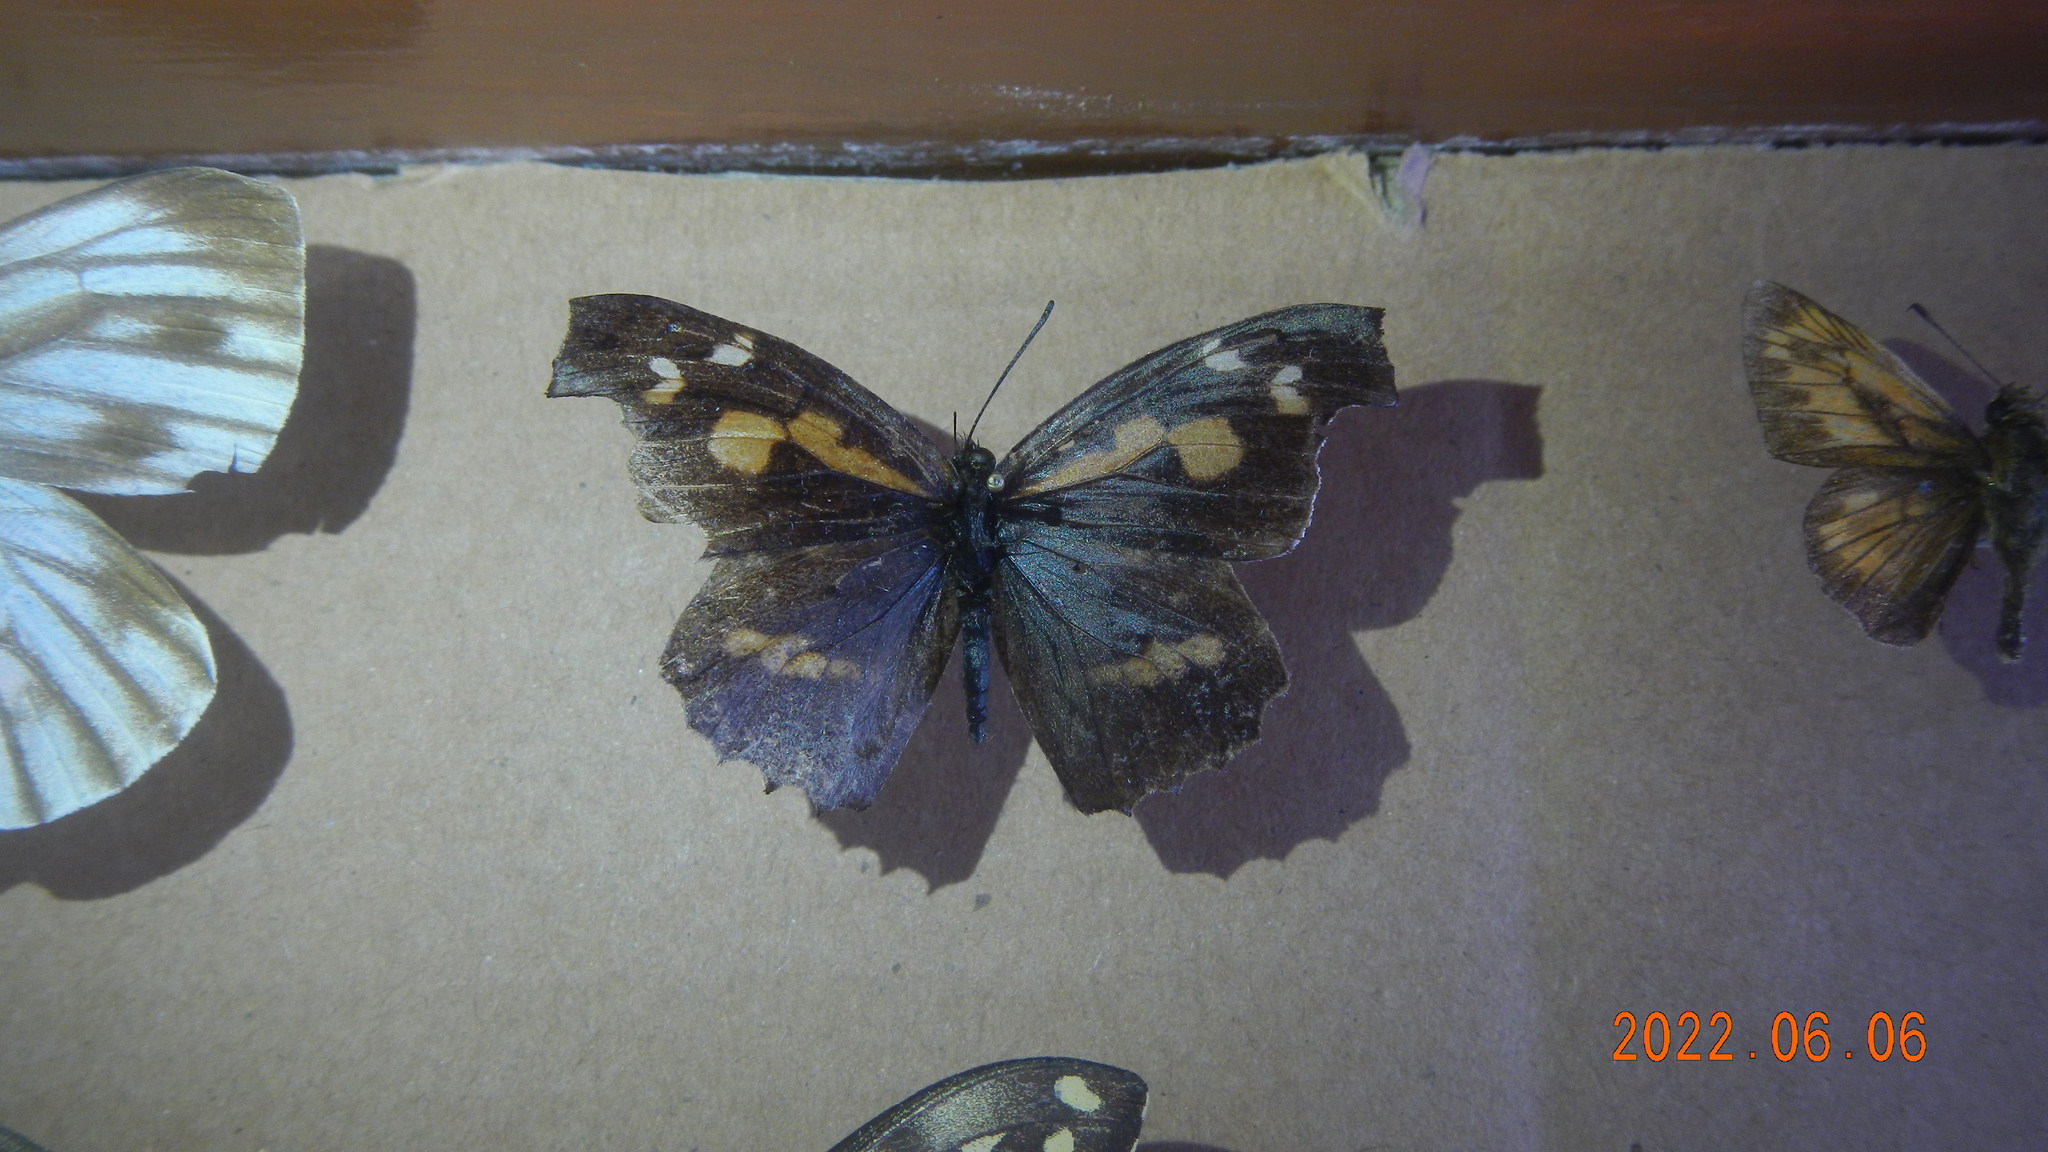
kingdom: Animalia
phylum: Arthropoda
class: Insecta
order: Lepidoptera
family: Nymphalidae
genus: Libythea
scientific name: Libythea lepita
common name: Common beak
